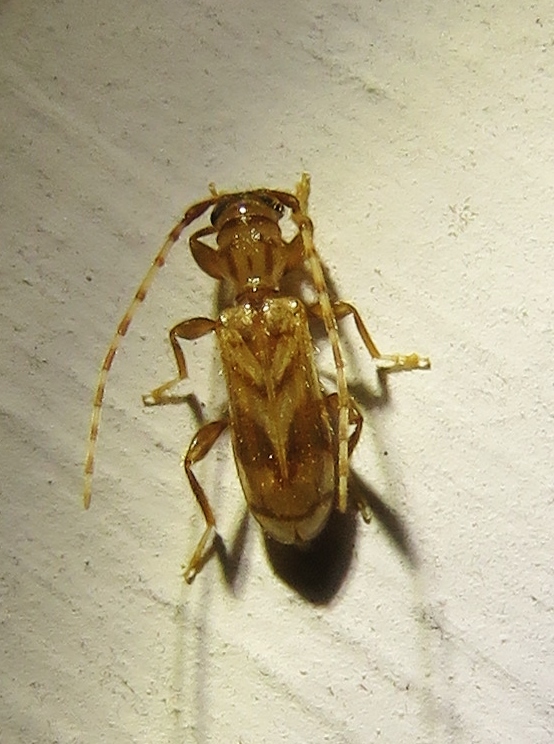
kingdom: Animalia
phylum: Arthropoda
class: Insecta
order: Coleoptera
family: Cerambycidae
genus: Obrium
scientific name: Obrium maculatum
